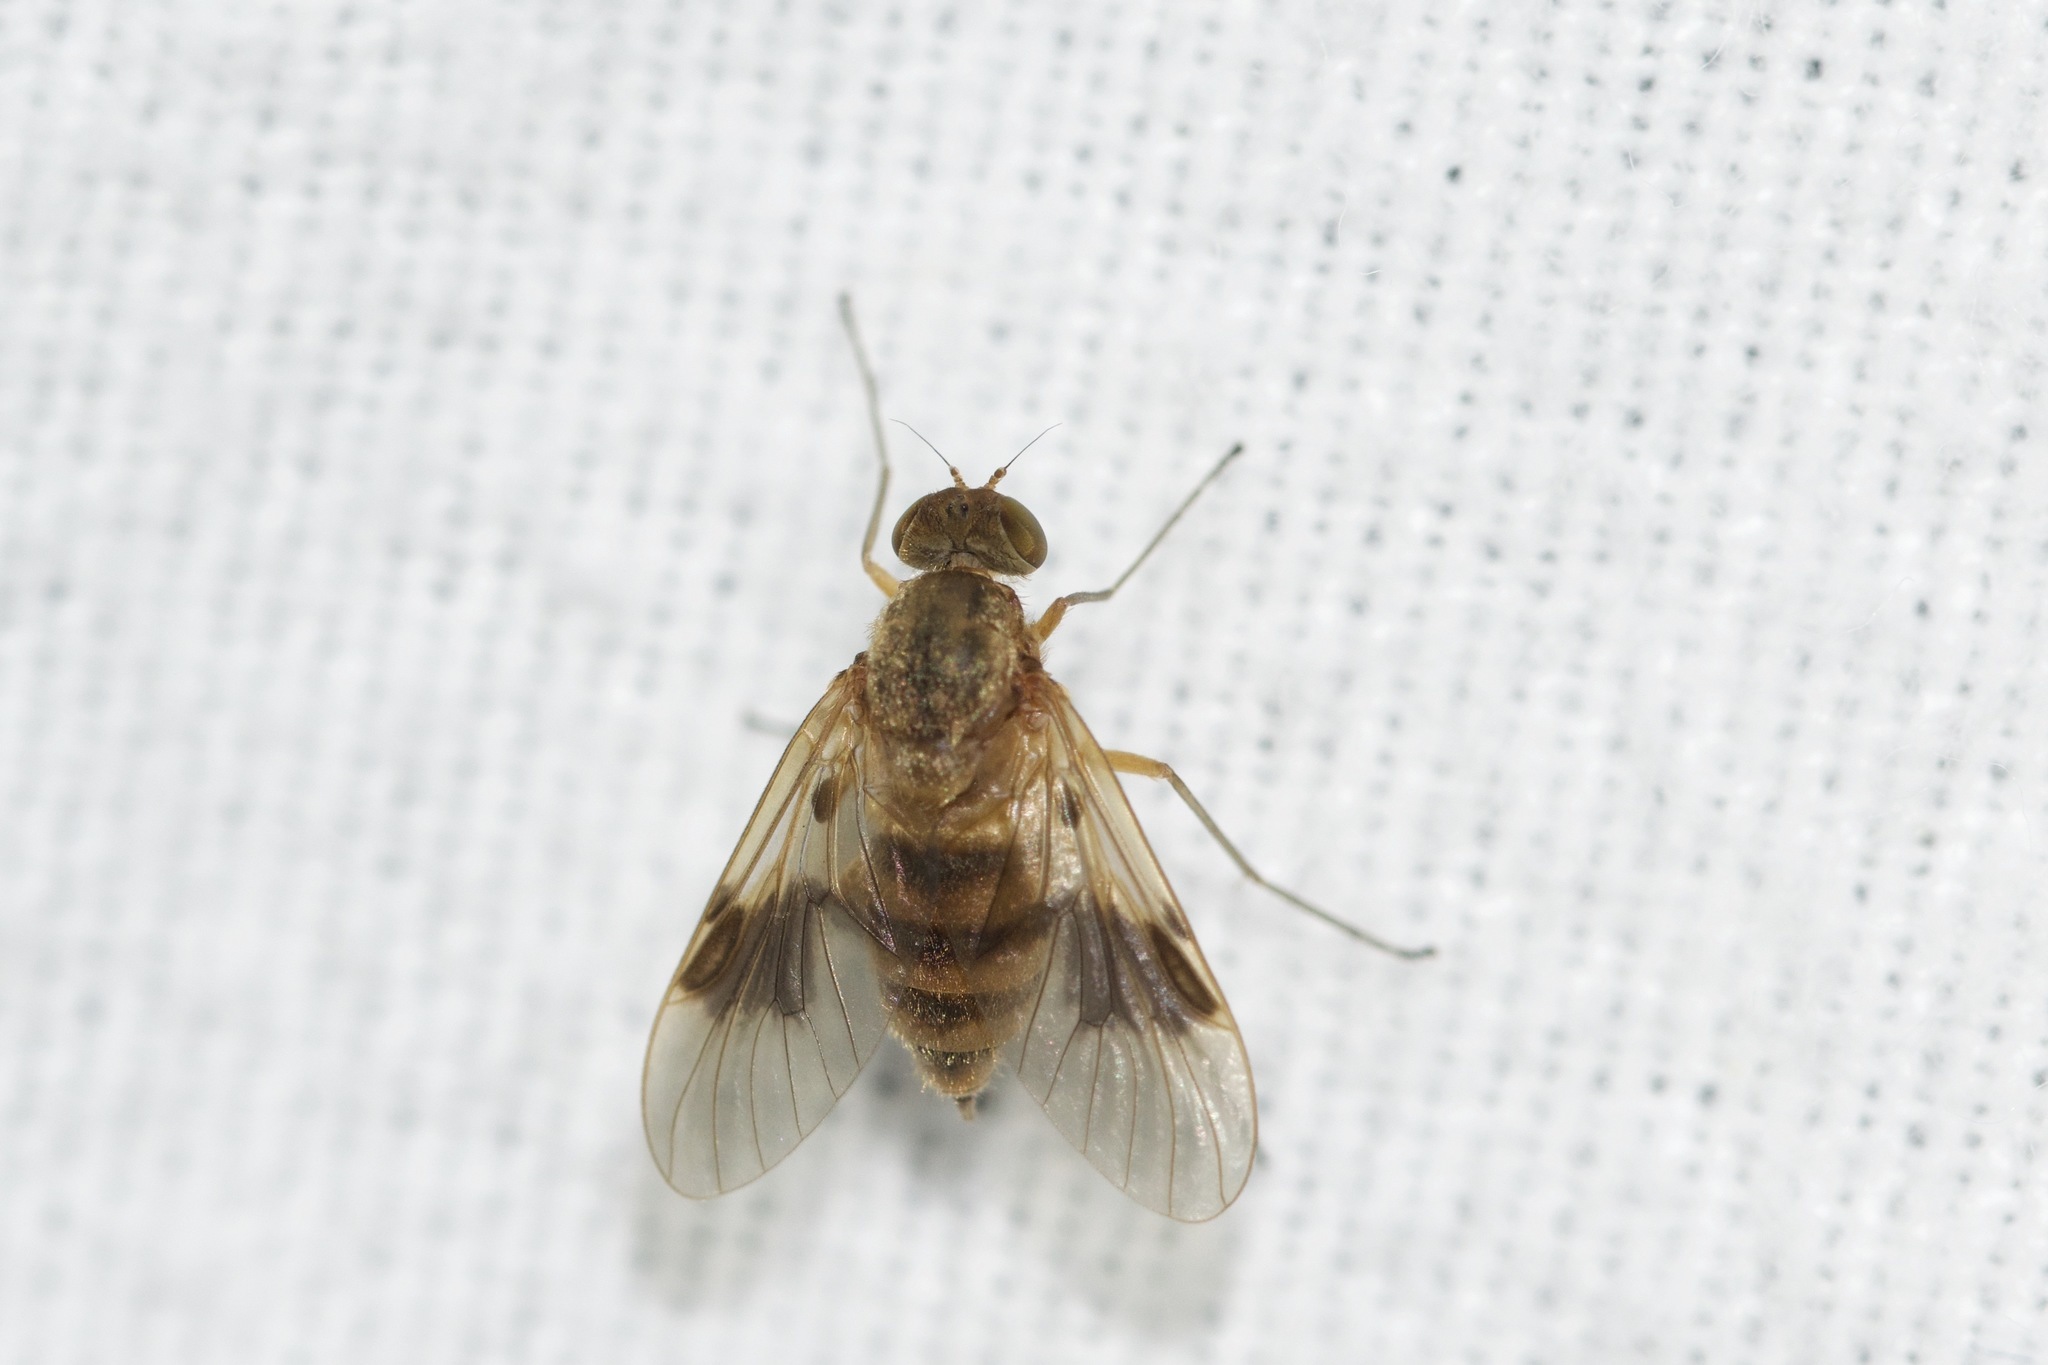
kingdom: Animalia
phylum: Arthropoda
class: Insecta
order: Diptera
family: Rhagionidae
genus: Chrysopilus
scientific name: Chrysopilus quadratus
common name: Quadrate snipe fly
